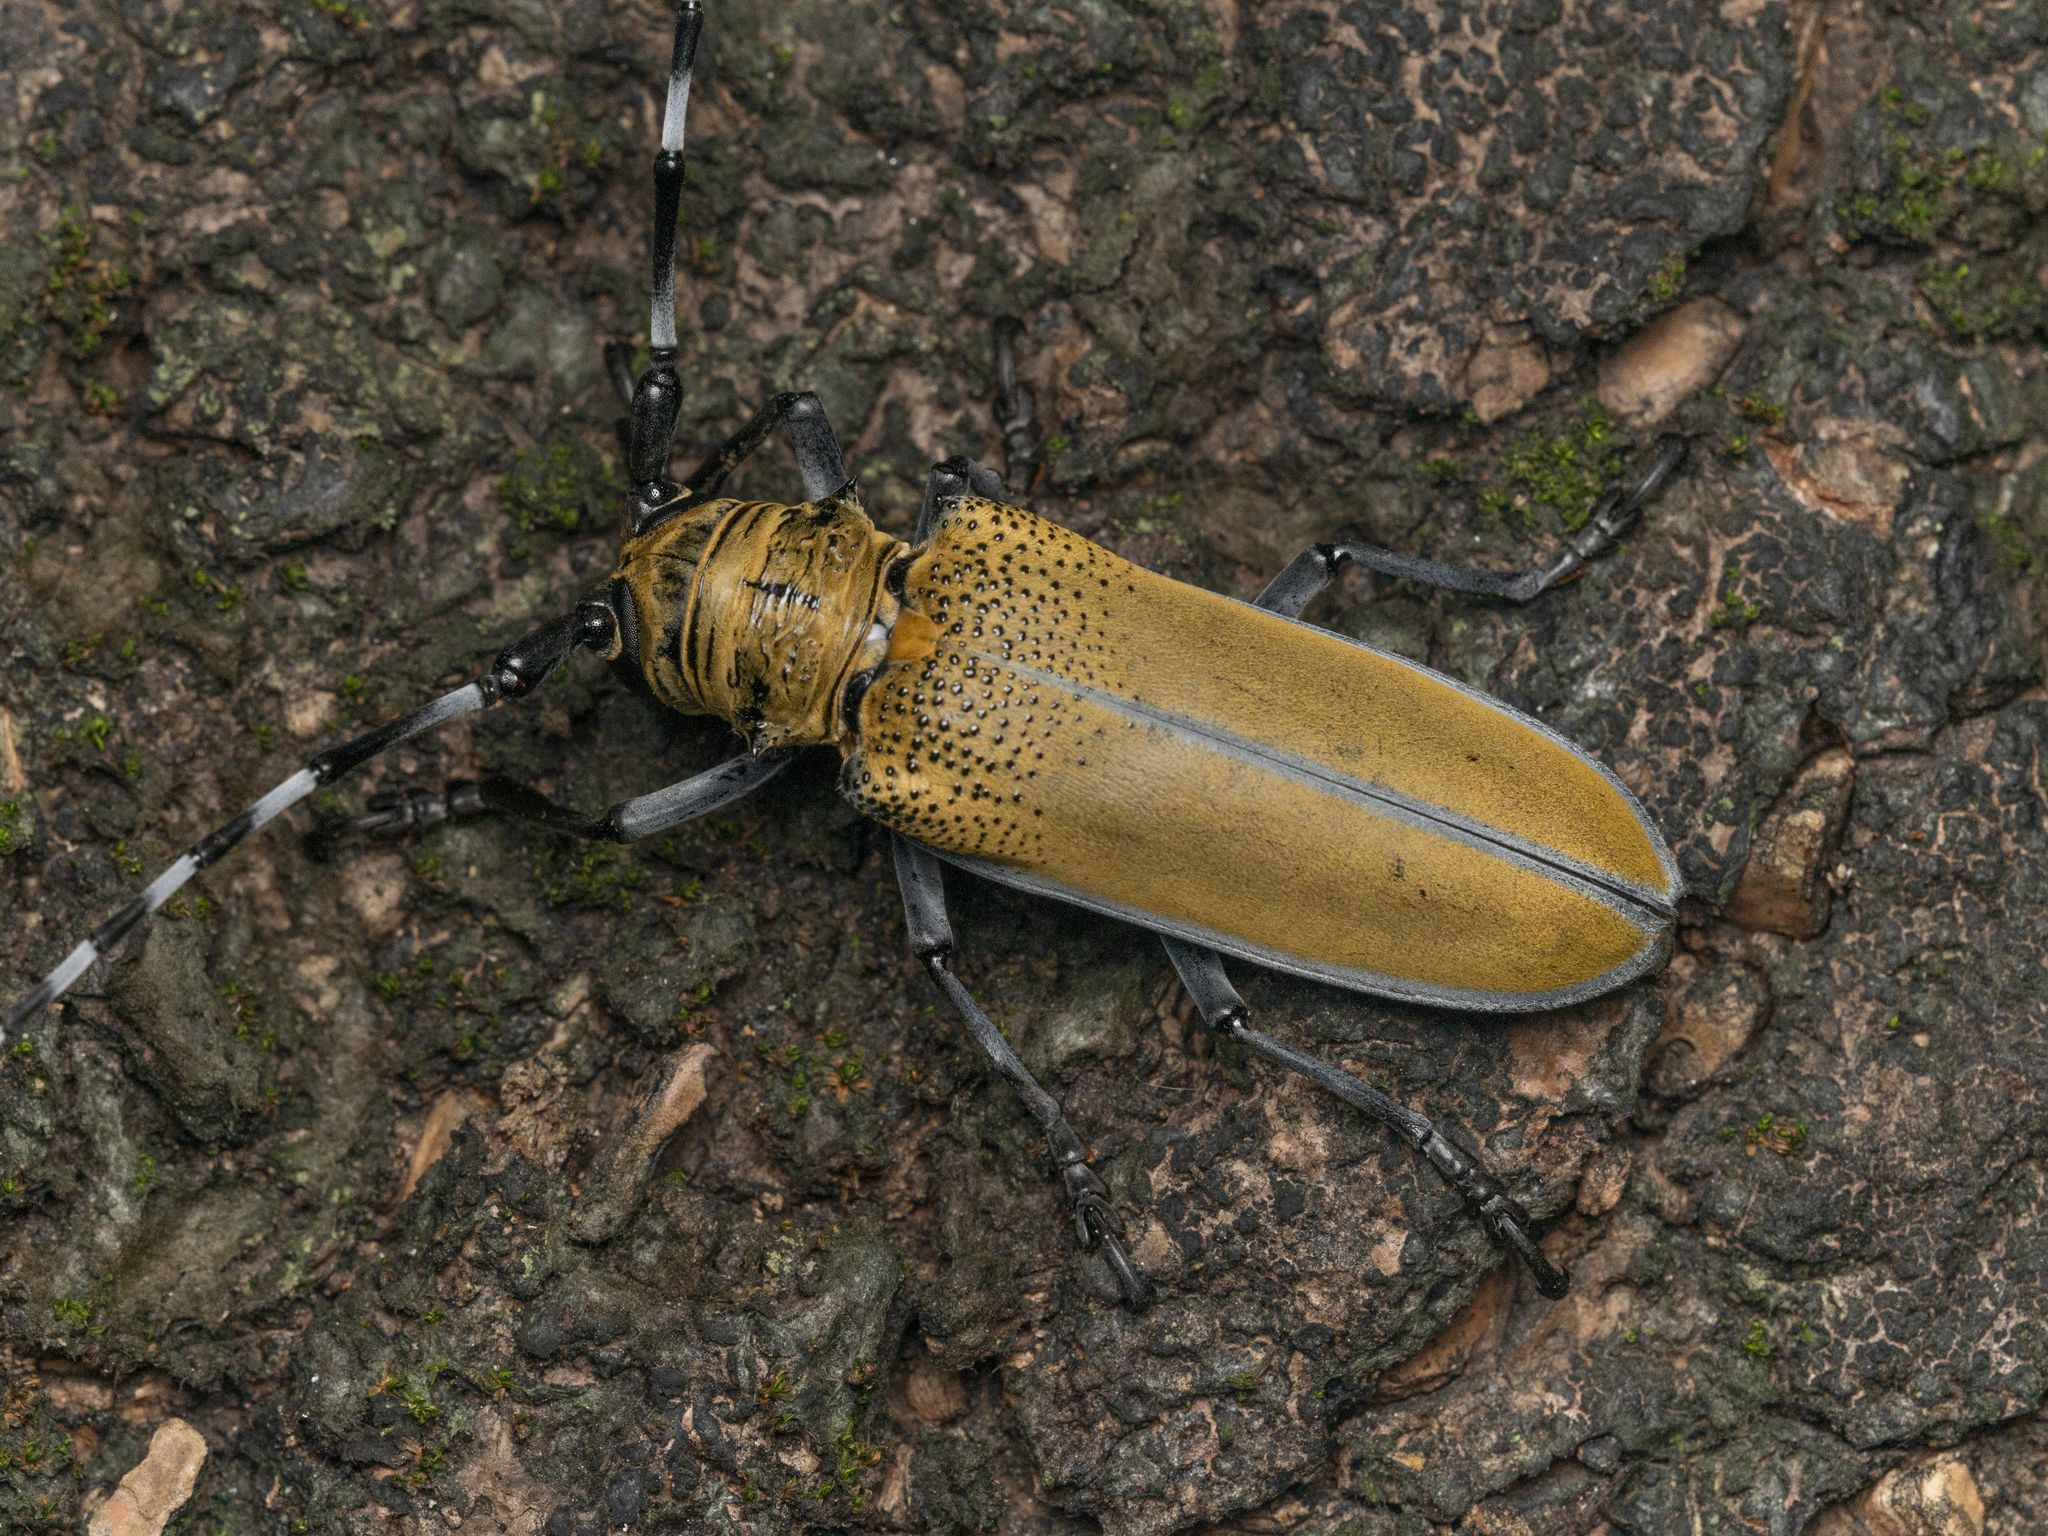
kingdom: Animalia
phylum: Arthropoda
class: Insecta
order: Coleoptera
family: Cerambycidae
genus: Apriona
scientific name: Apriona rugicollis
